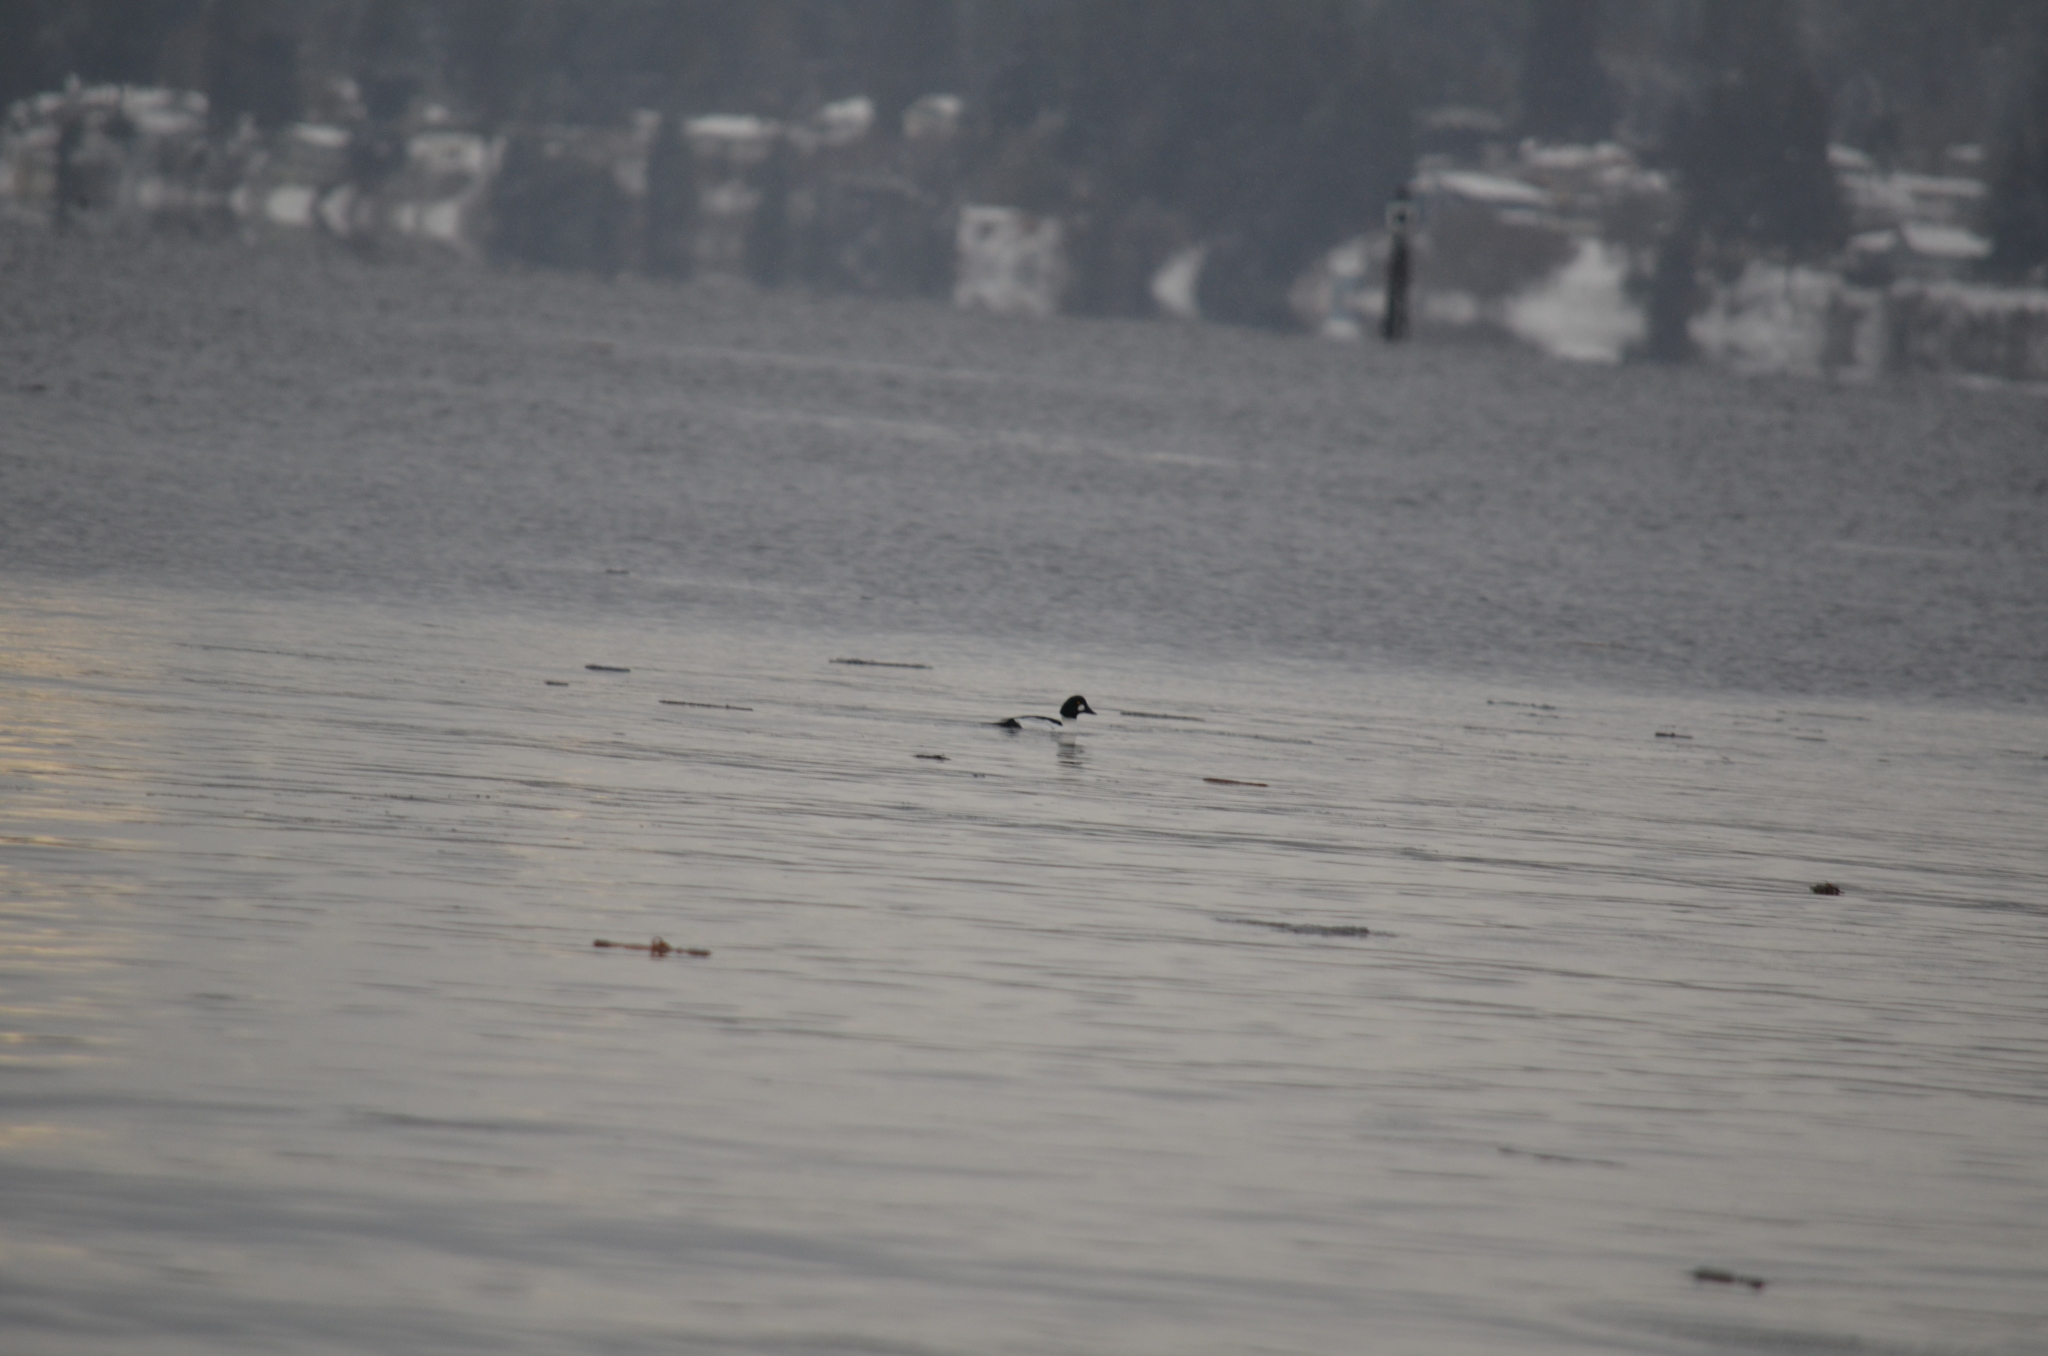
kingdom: Animalia
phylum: Chordata
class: Aves
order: Anseriformes
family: Anatidae
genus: Bucephala
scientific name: Bucephala clangula
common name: Common goldeneye
